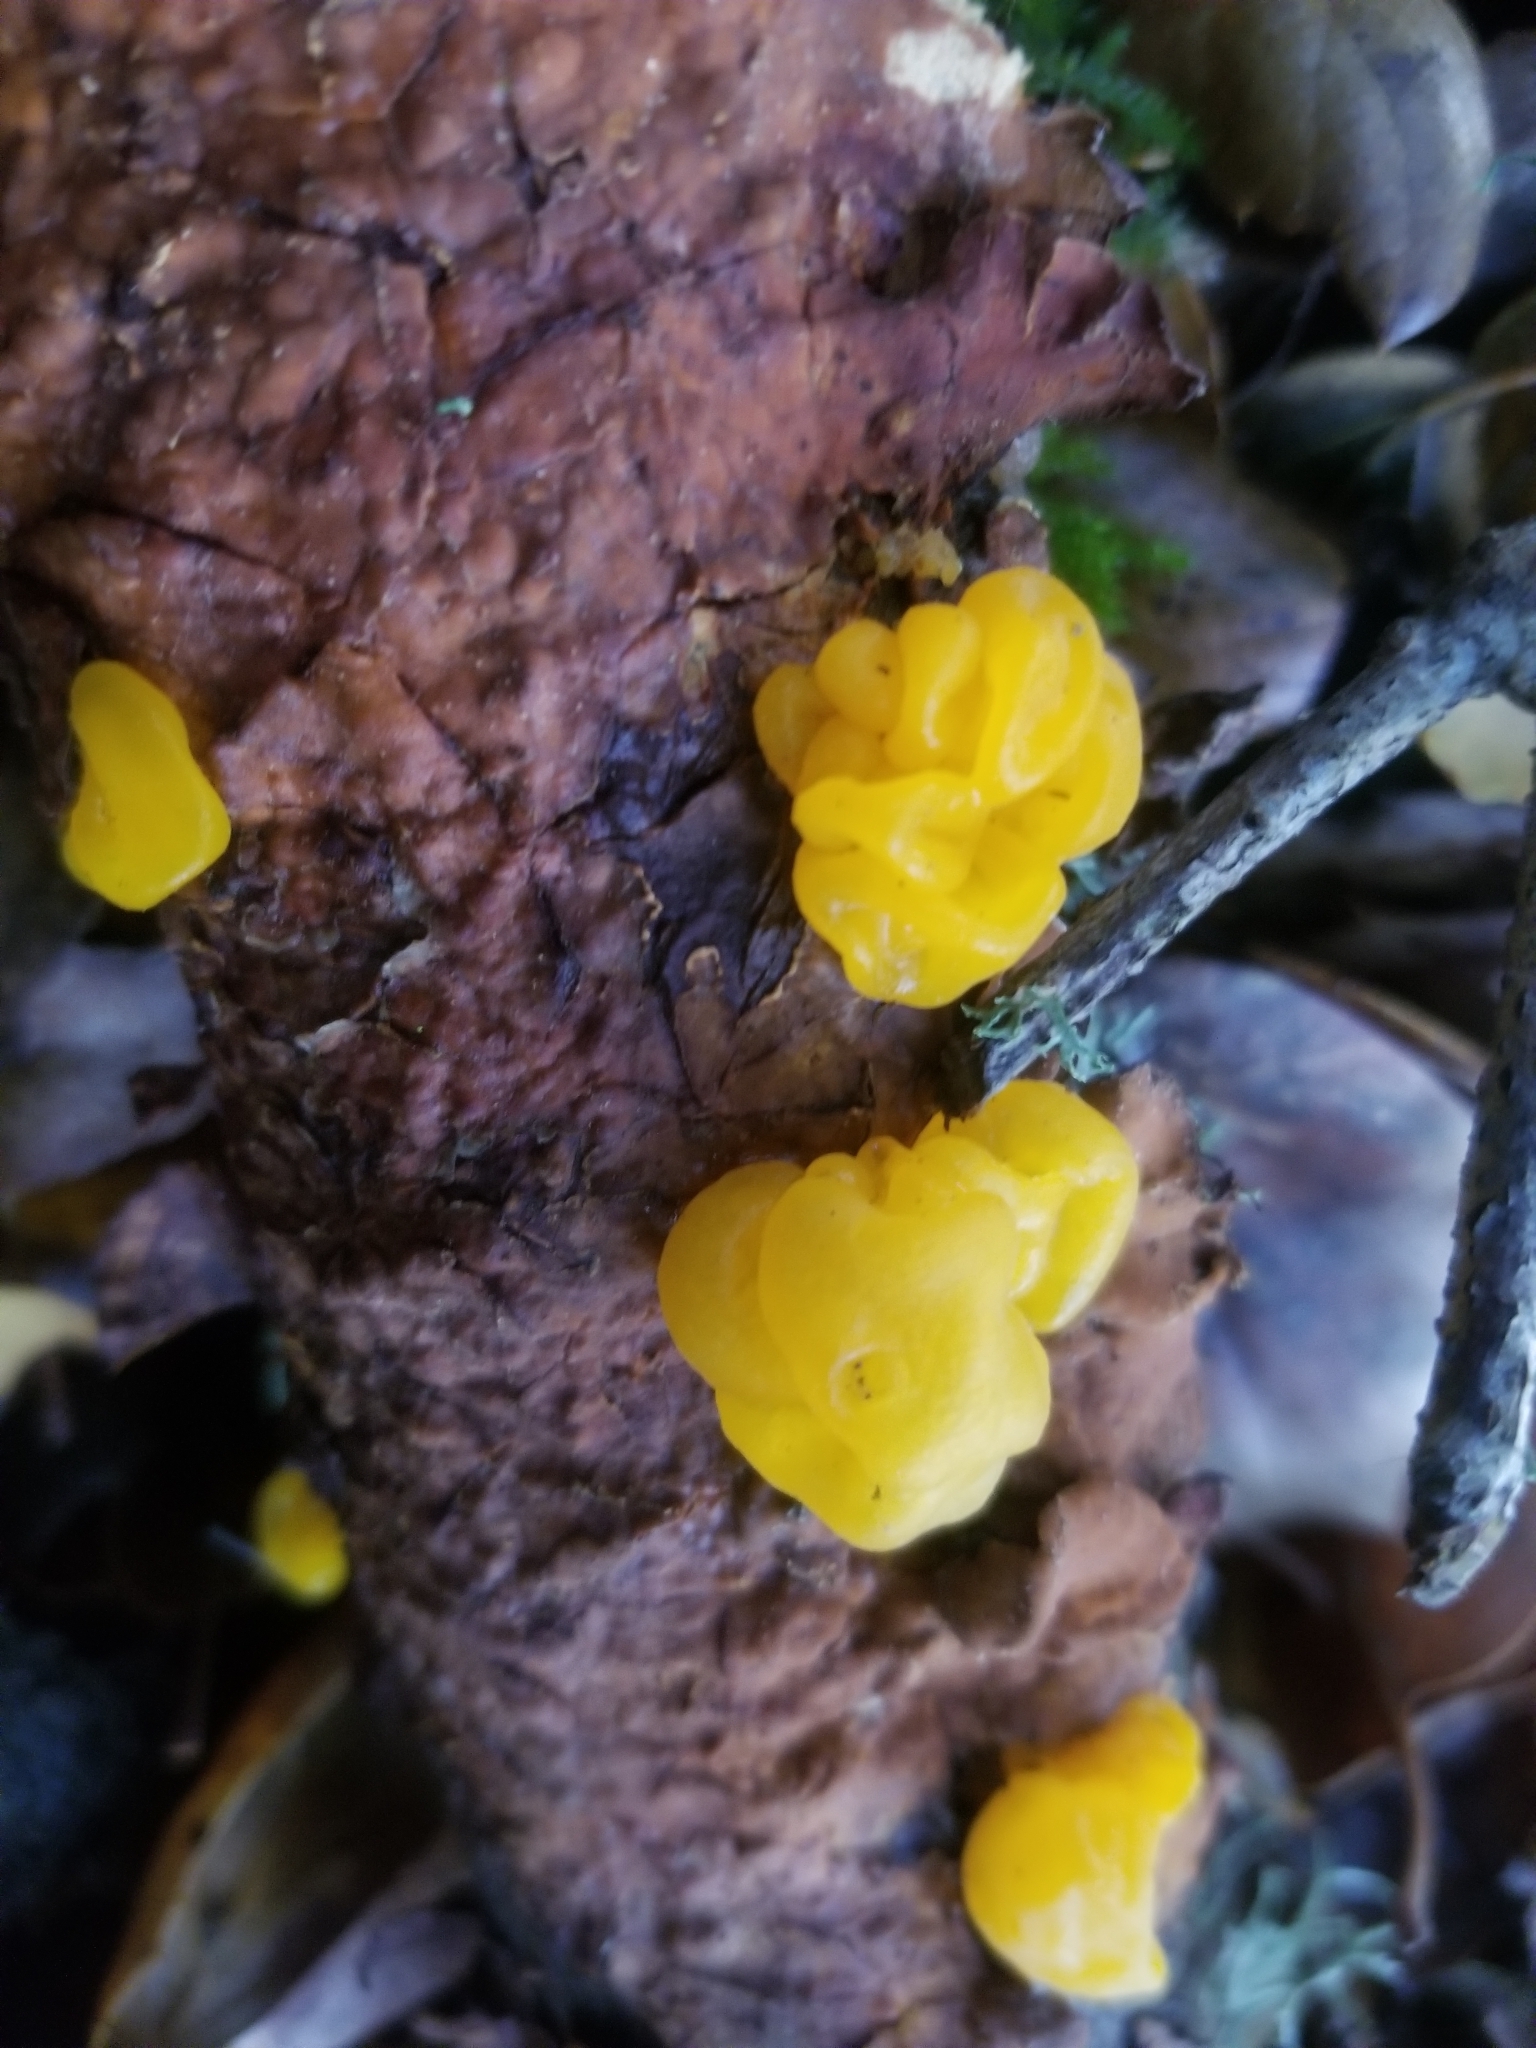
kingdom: Fungi
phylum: Basidiomycota
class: Tremellomycetes
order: Tremellales
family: Naemateliaceae
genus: Naematelia
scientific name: Naematelia aurantia
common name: Golden ear
